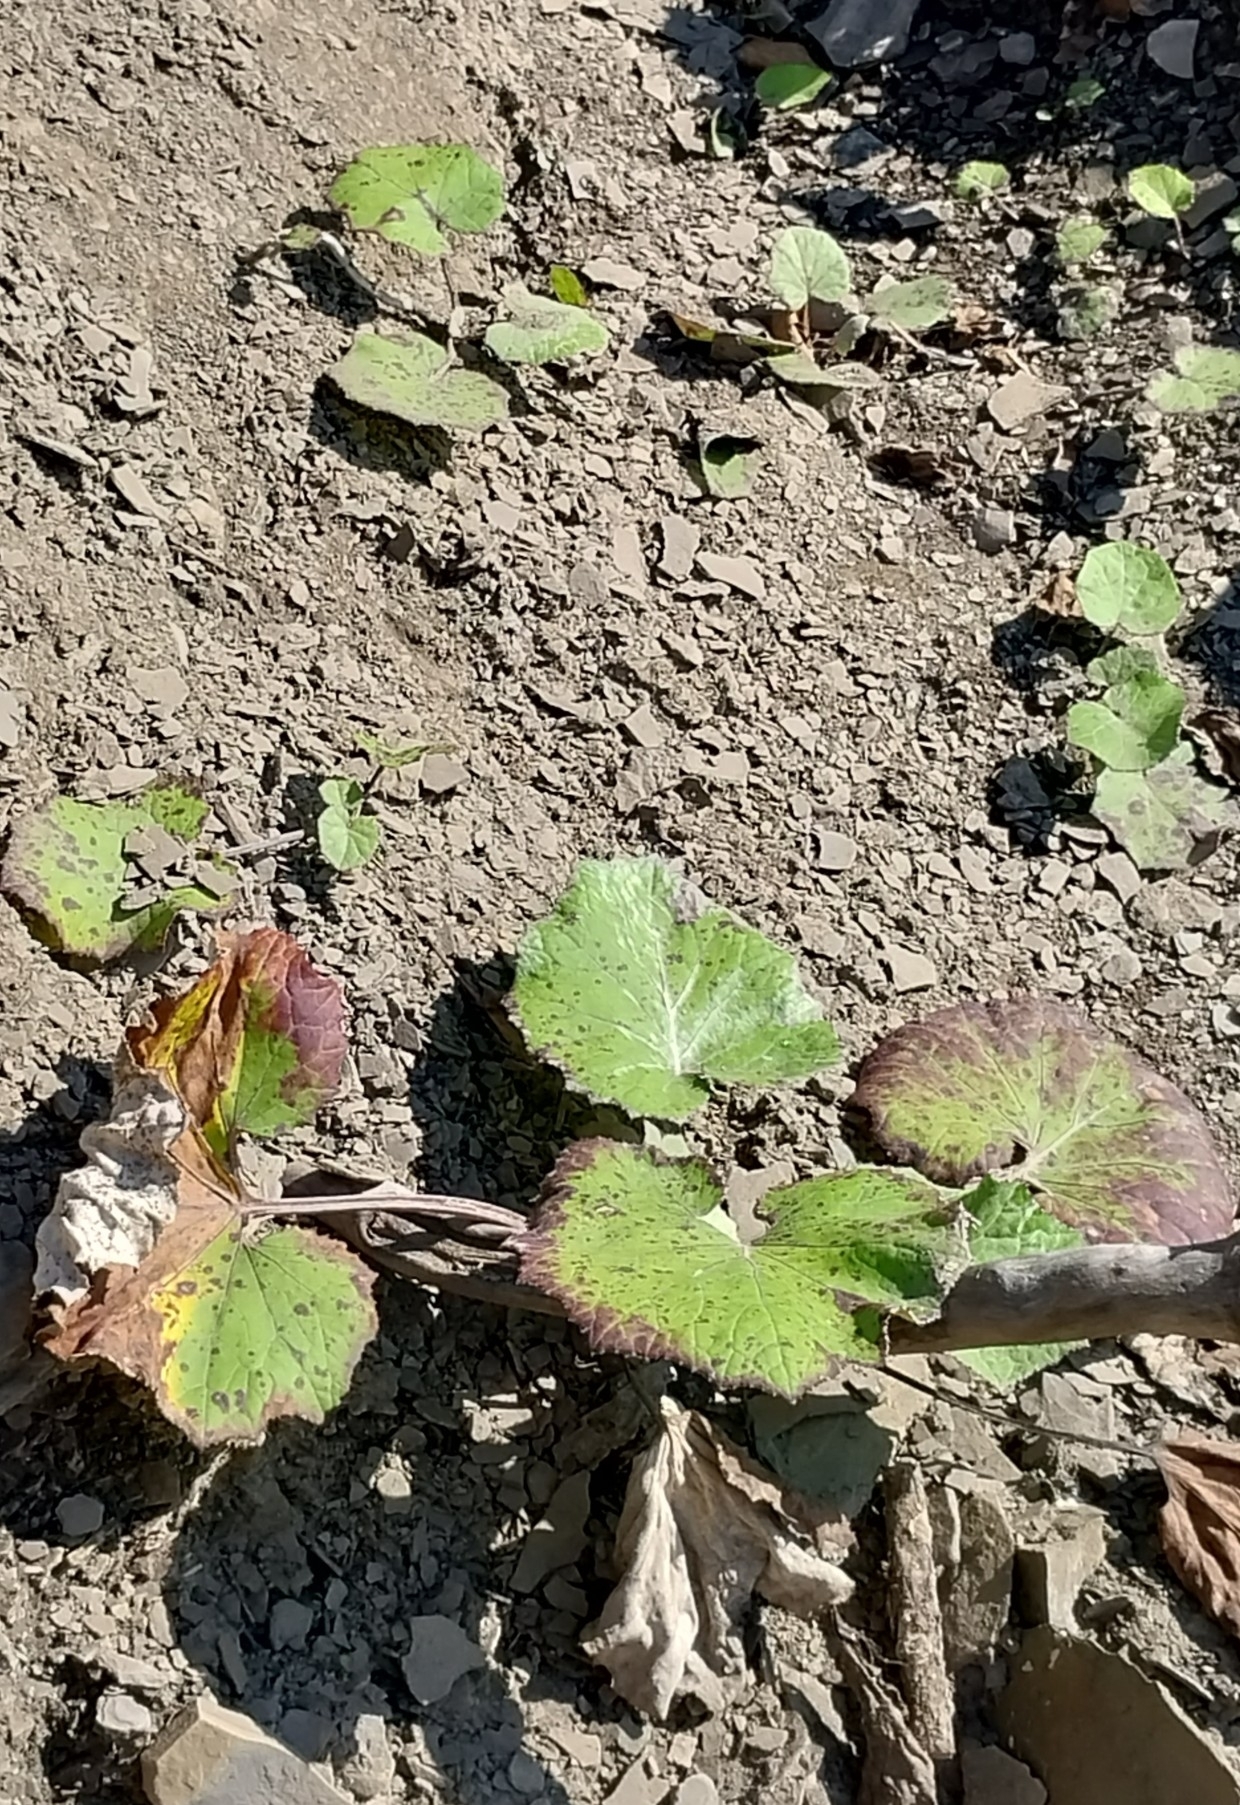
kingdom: Plantae
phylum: Tracheophyta
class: Magnoliopsida
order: Asterales
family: Asteraceae
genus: Tussilago
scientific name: Tussilago farfara
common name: Coltsfoot
